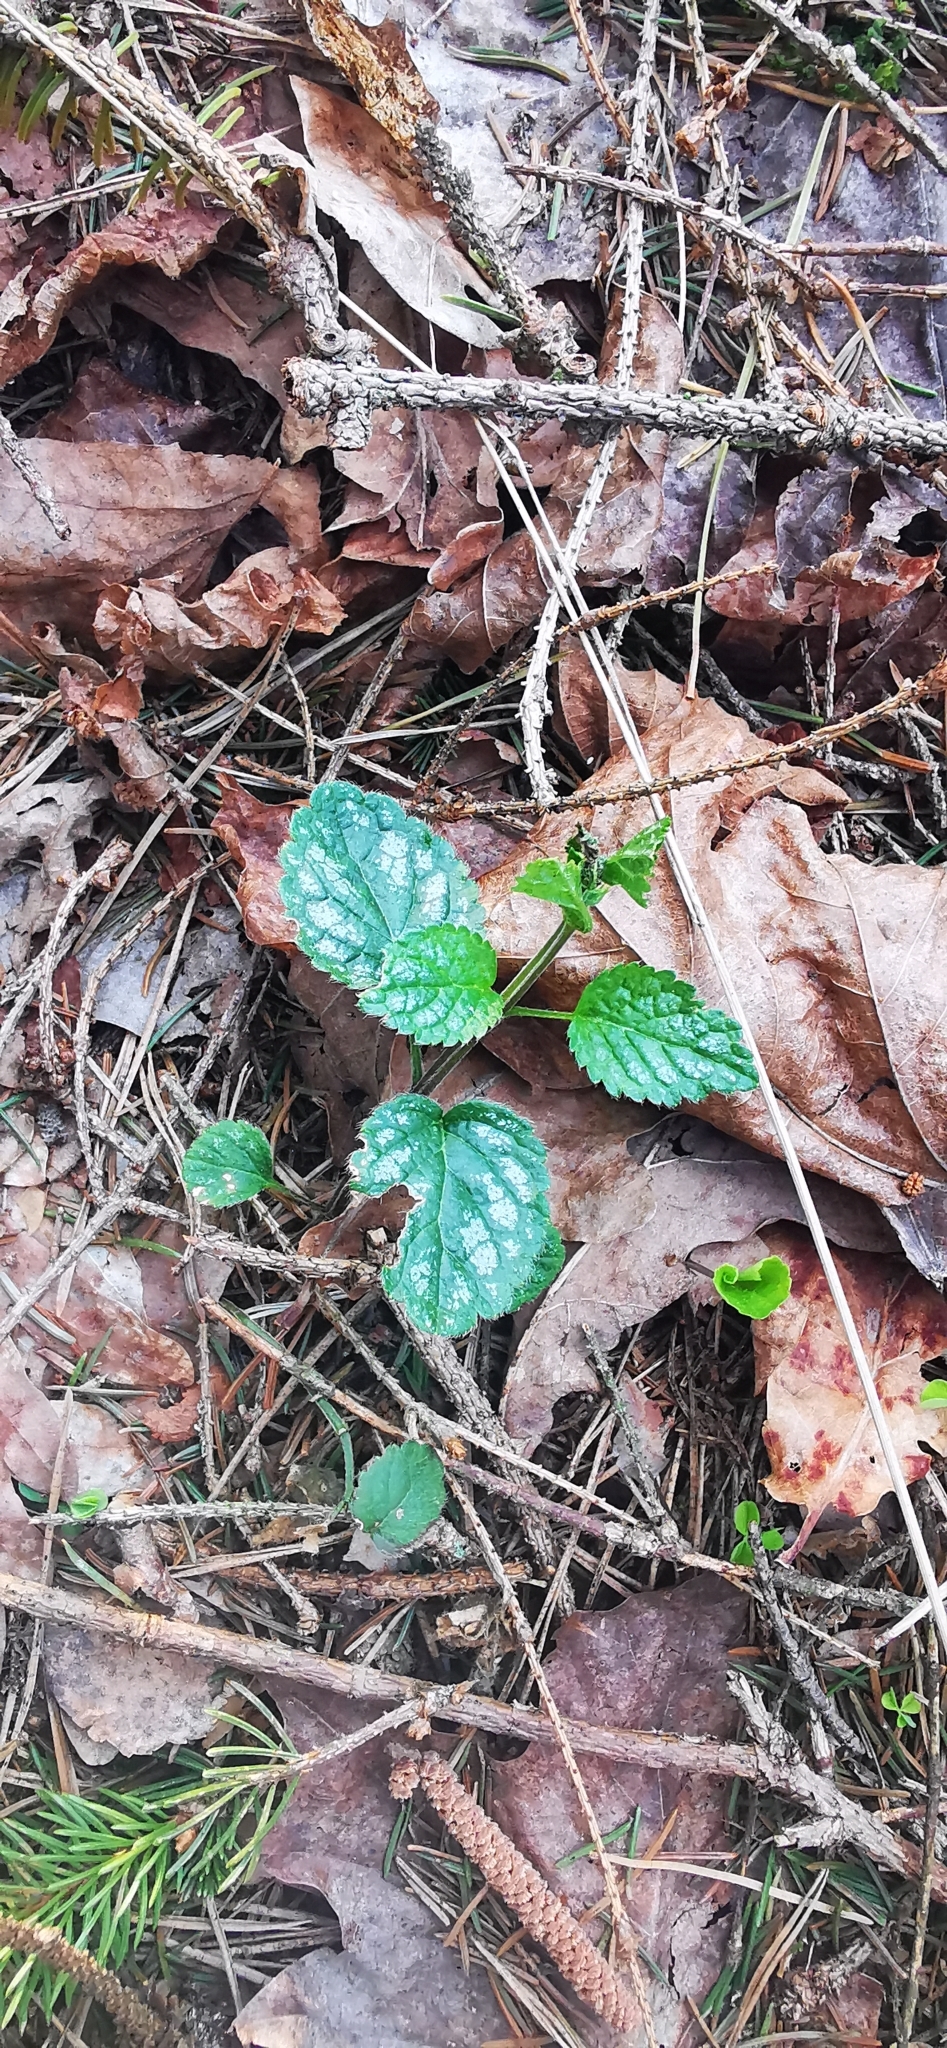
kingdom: Plantae
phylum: Tracheophyta
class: Magnoliopsida
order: Lamiales
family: Lamiaceae
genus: Lamium
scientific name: Lamium galeobdolon
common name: Yellow archangel
